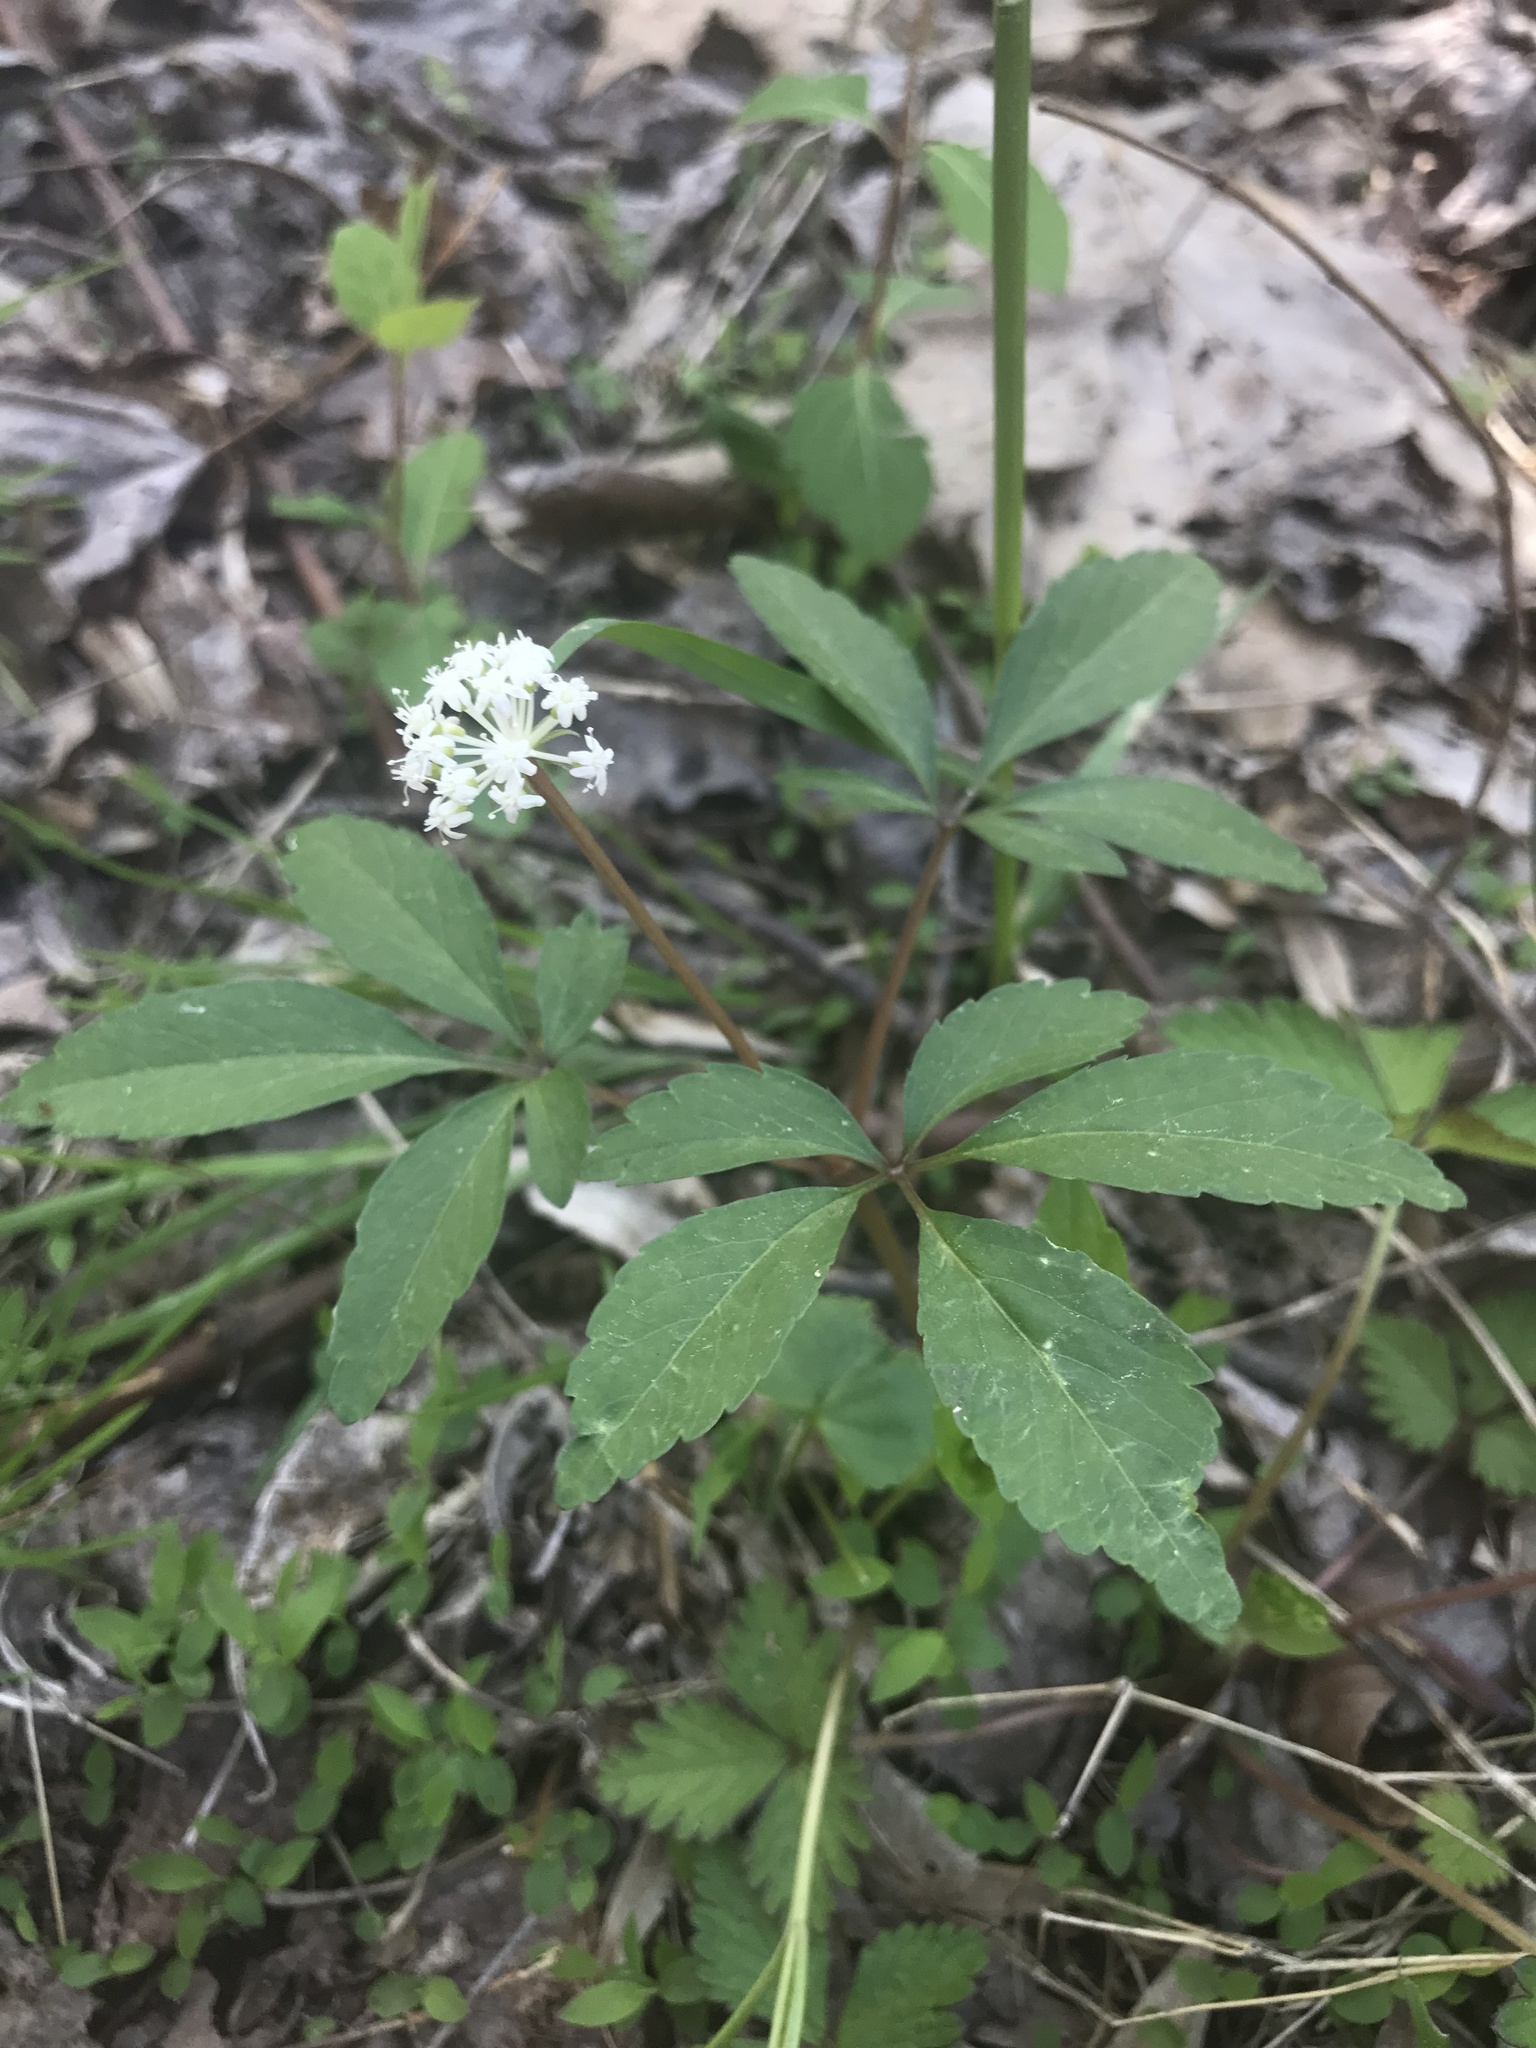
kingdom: Plantae
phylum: Tracheophyta
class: Magnoliopsida
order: Apiales
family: Araliaceae
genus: Panax
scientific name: Panax trifolius
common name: Dwarf ginseng
